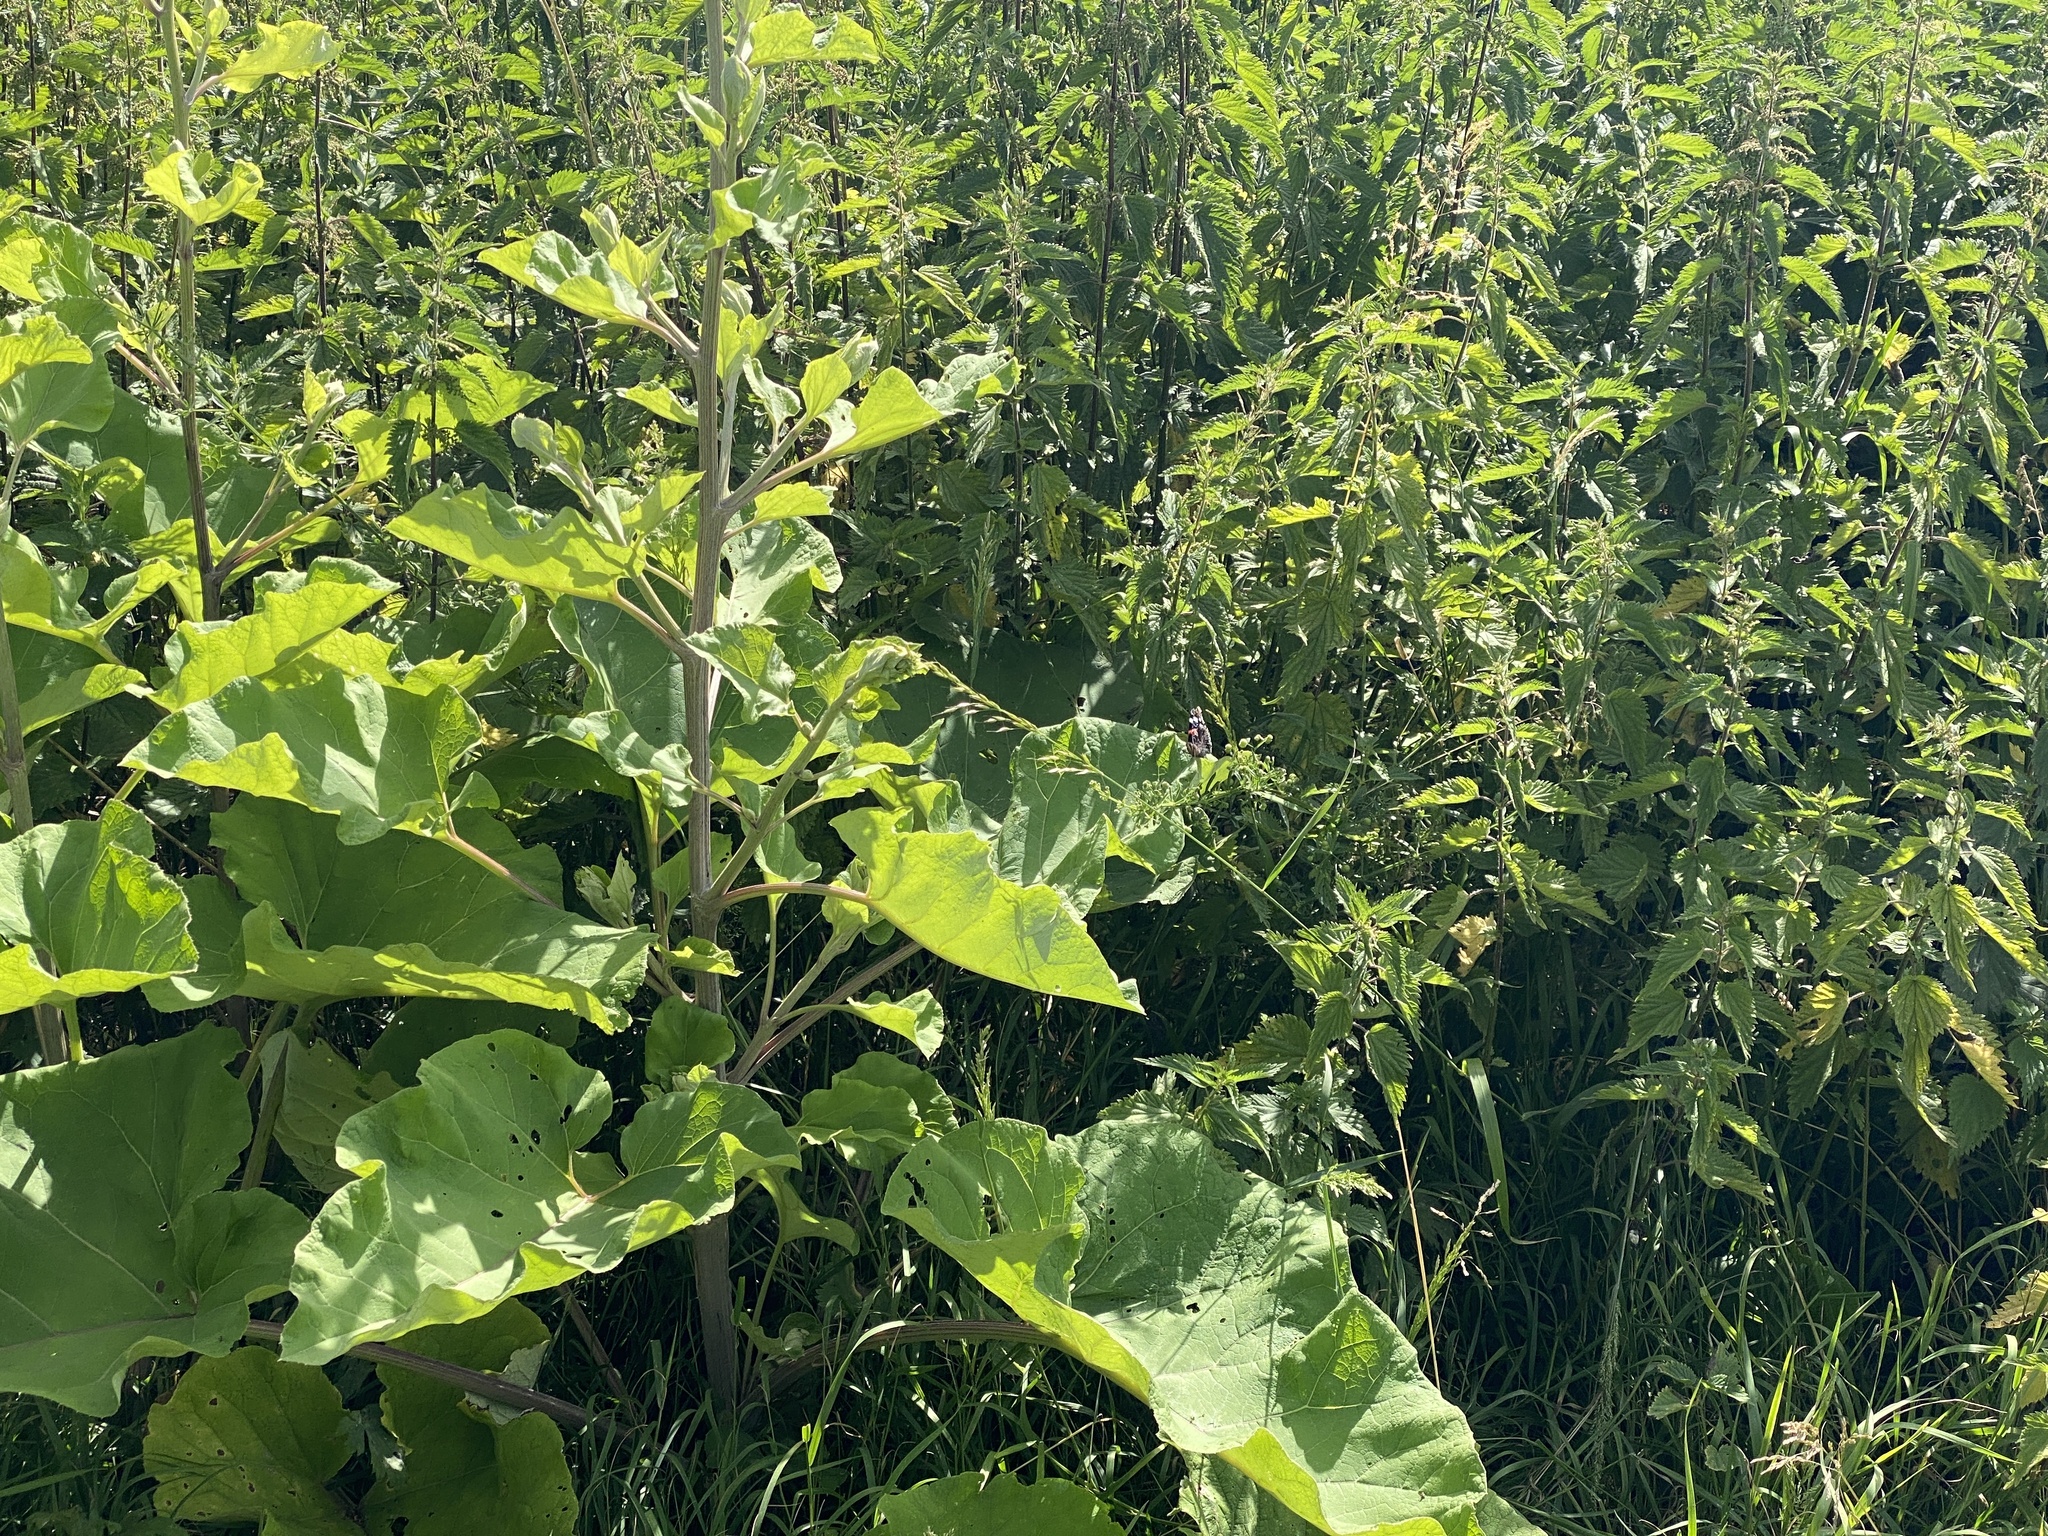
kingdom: Animalia
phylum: Arthropoda
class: Insecta
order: Lepidoptera
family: Nymphalidae
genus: Vanessa
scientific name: Vanessa atalanta
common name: Red admiral
